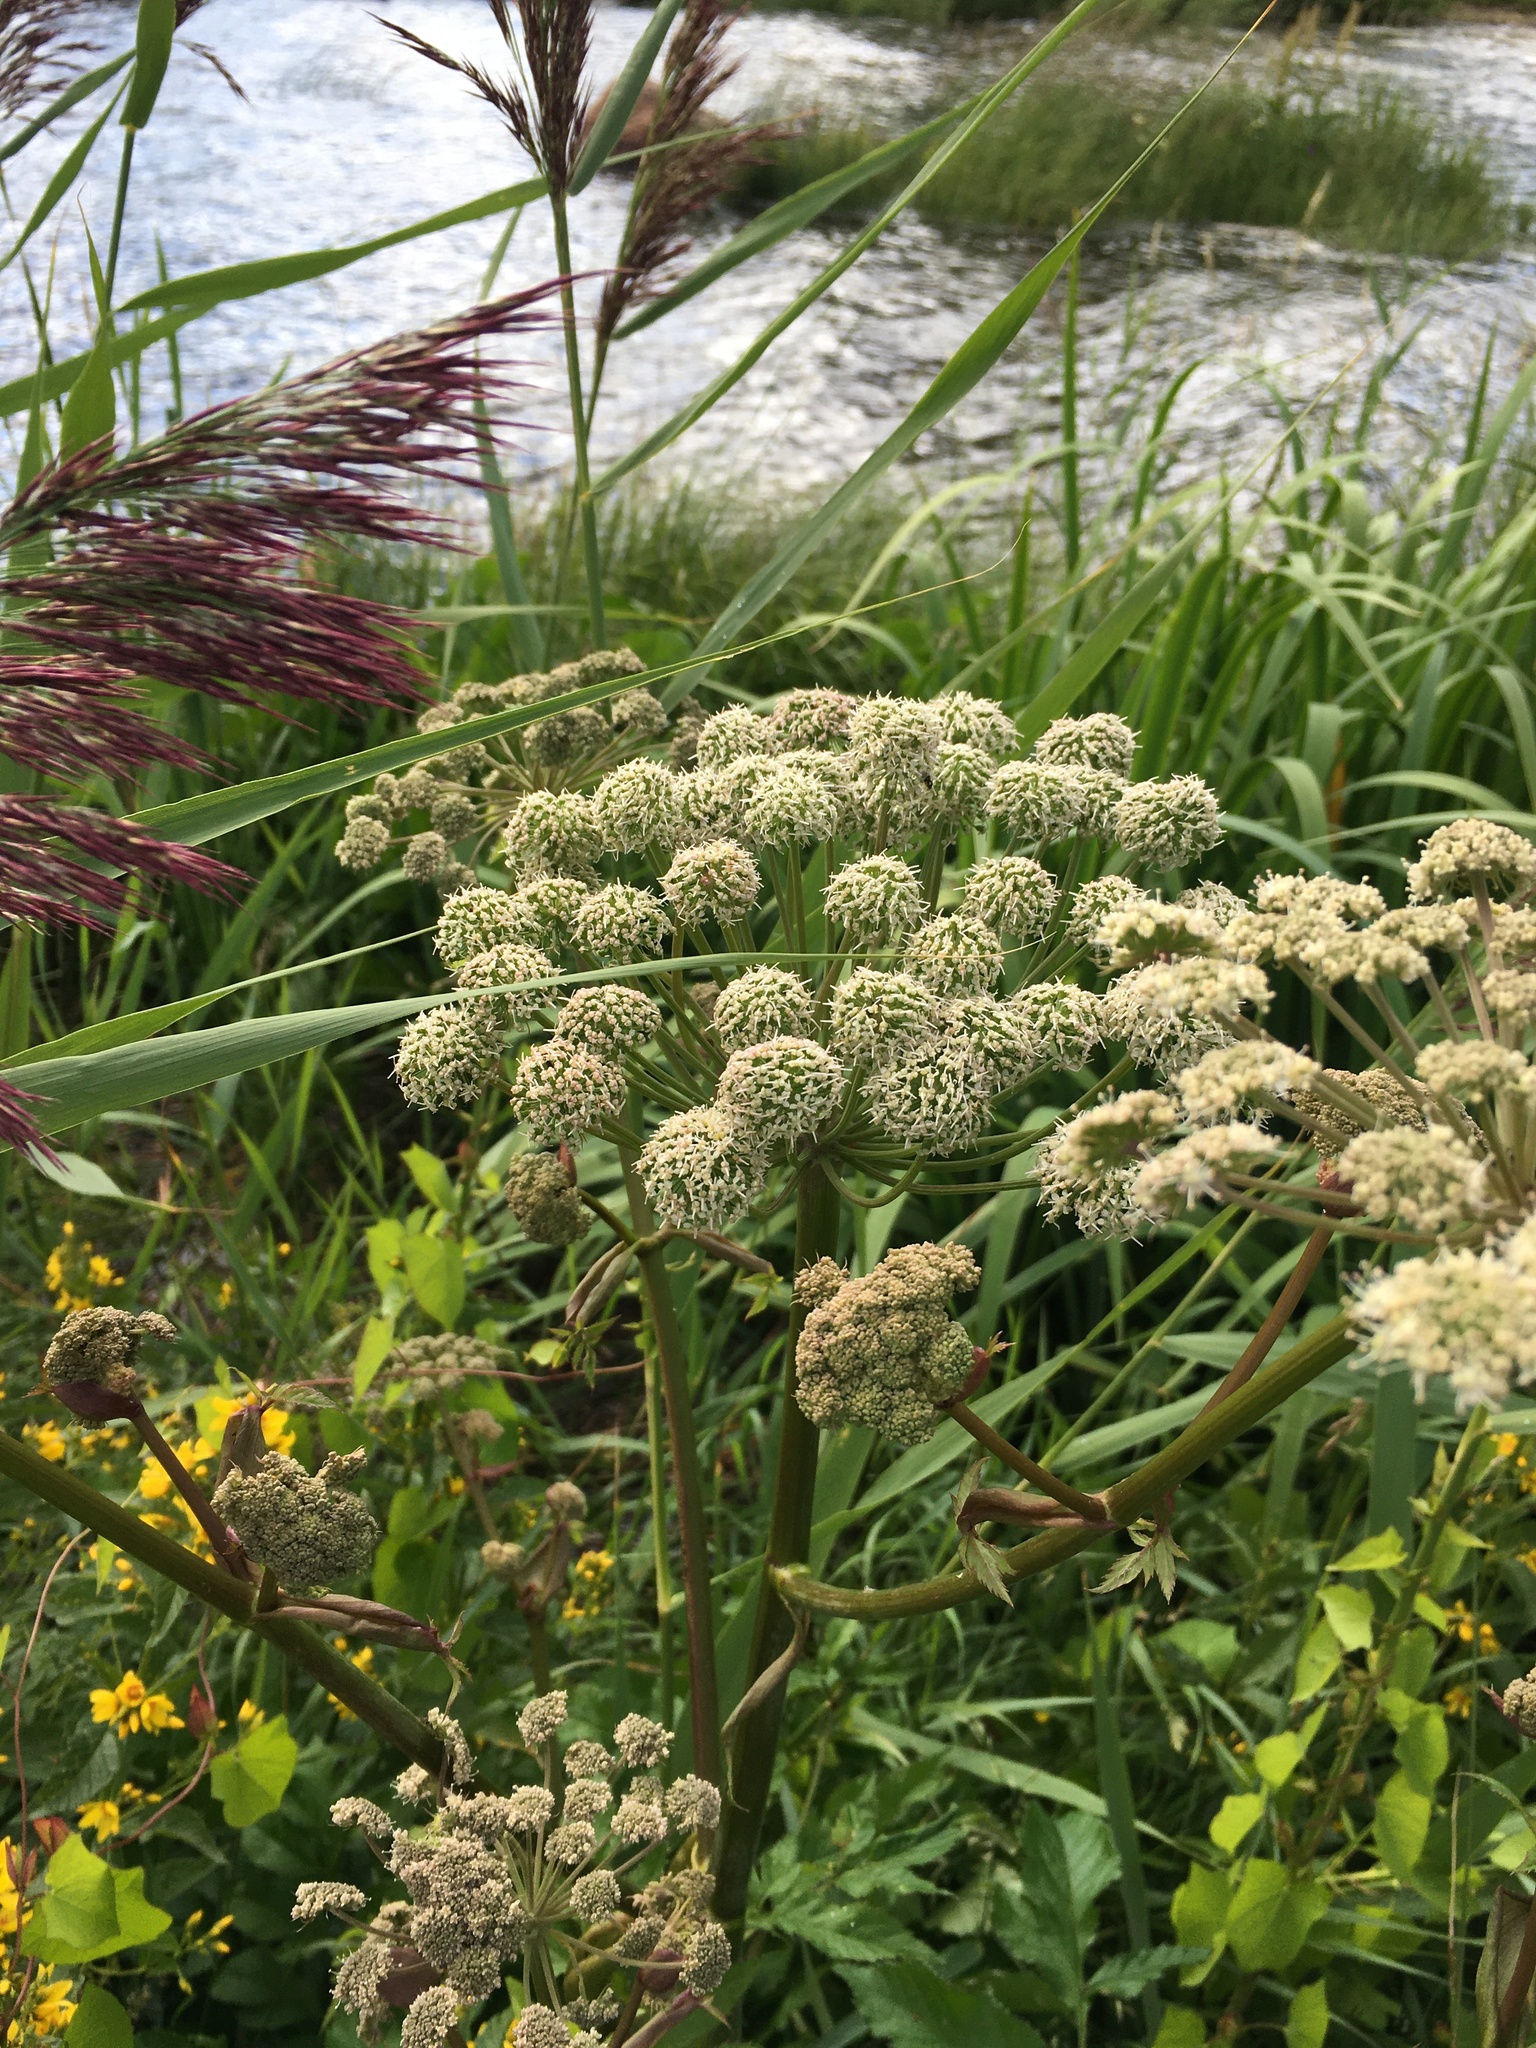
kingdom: Plantae
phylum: Tracheophyta
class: Magnoliopsida
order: Apiales
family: Apiaceae
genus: Angelica
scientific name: Angelica sylvestris
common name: Wild angelica
